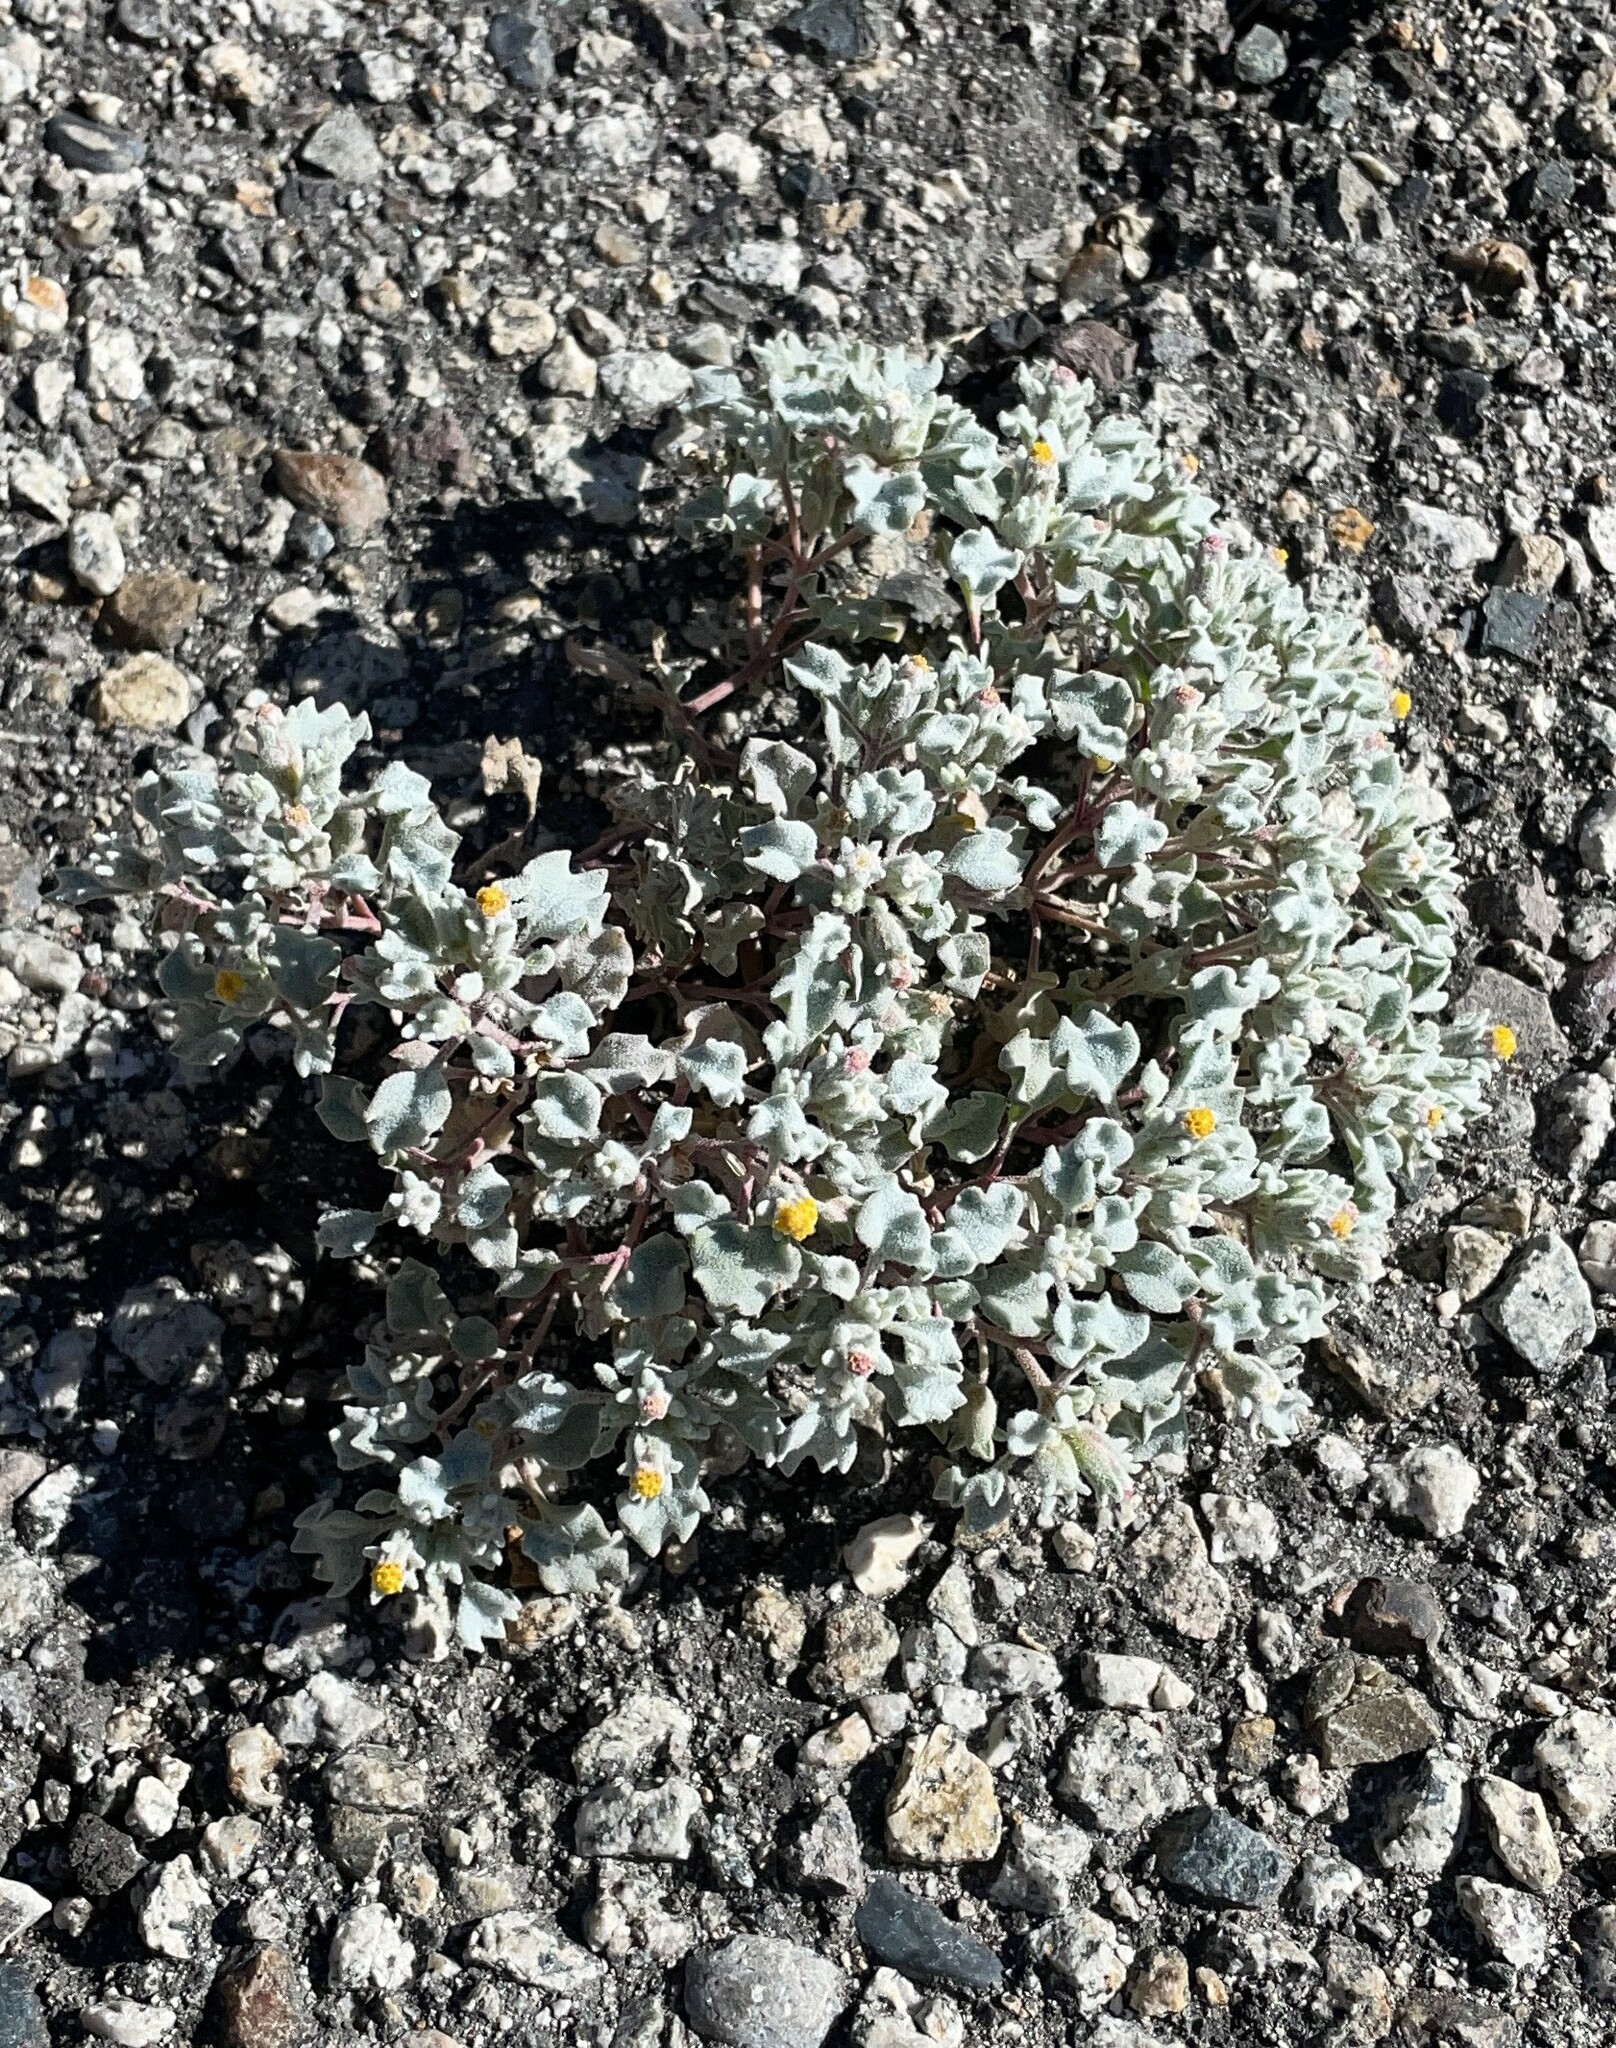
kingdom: Plantae
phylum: Tracheophyta
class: Magnoliopsida
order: Asterales
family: Asteraceae
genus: Psathyrotes
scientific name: Psathyrotes annua
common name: Mealy rosettes
